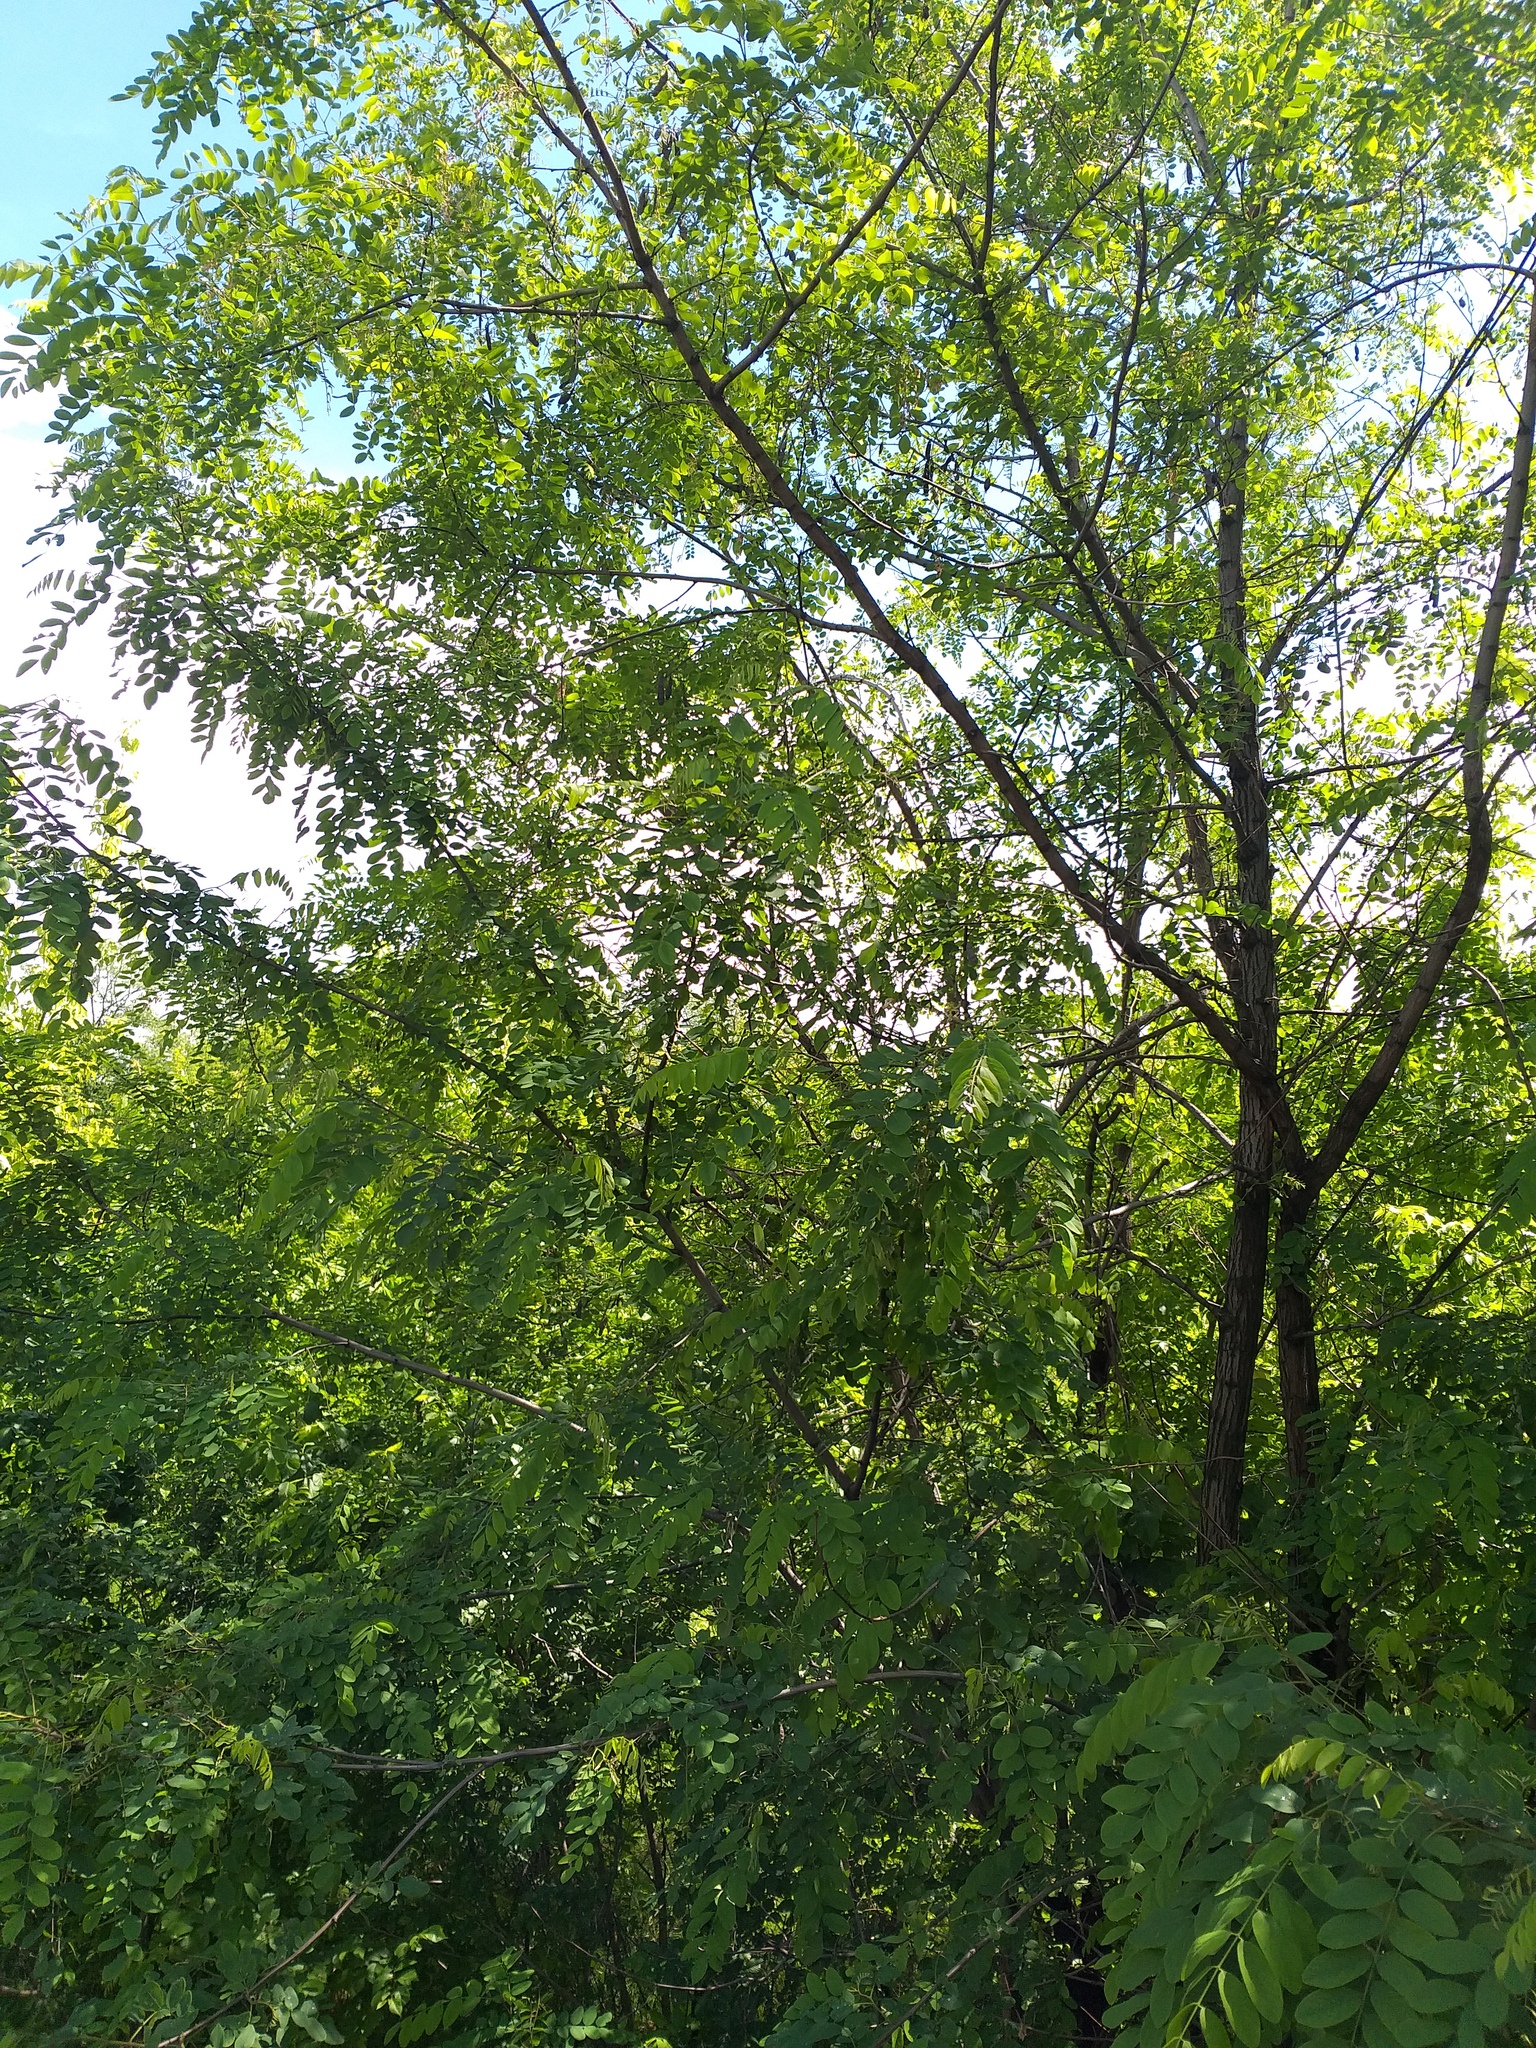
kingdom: Plantae
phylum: Tracheophyta
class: Magnoliopsida
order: Fabales
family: Fabaceae
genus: Robinia
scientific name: Robinia pseudoacacia
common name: Black locust
